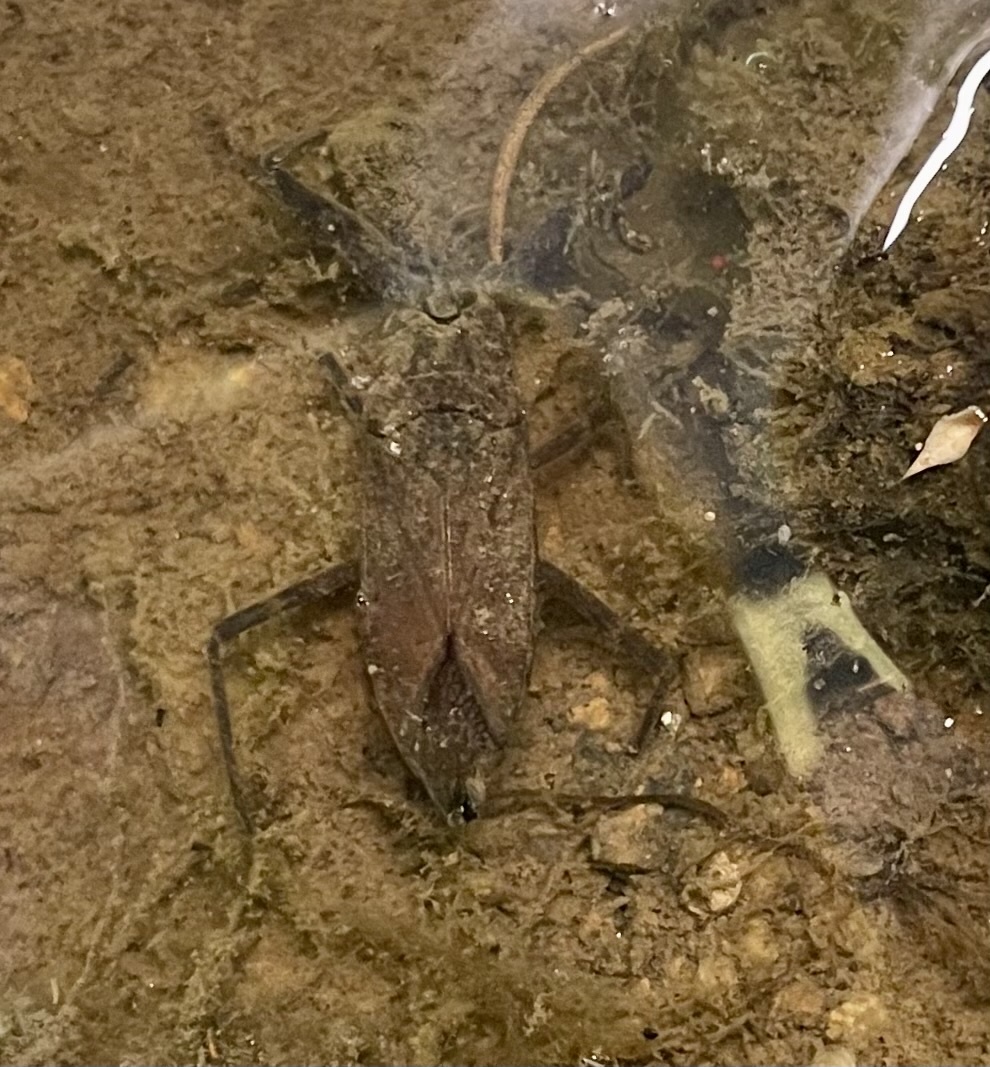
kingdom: Animalia
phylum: Arthropoda
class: Insecta
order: Hemiptera
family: Nepidae
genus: Laccotrephes
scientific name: Laccotrephes tristis
